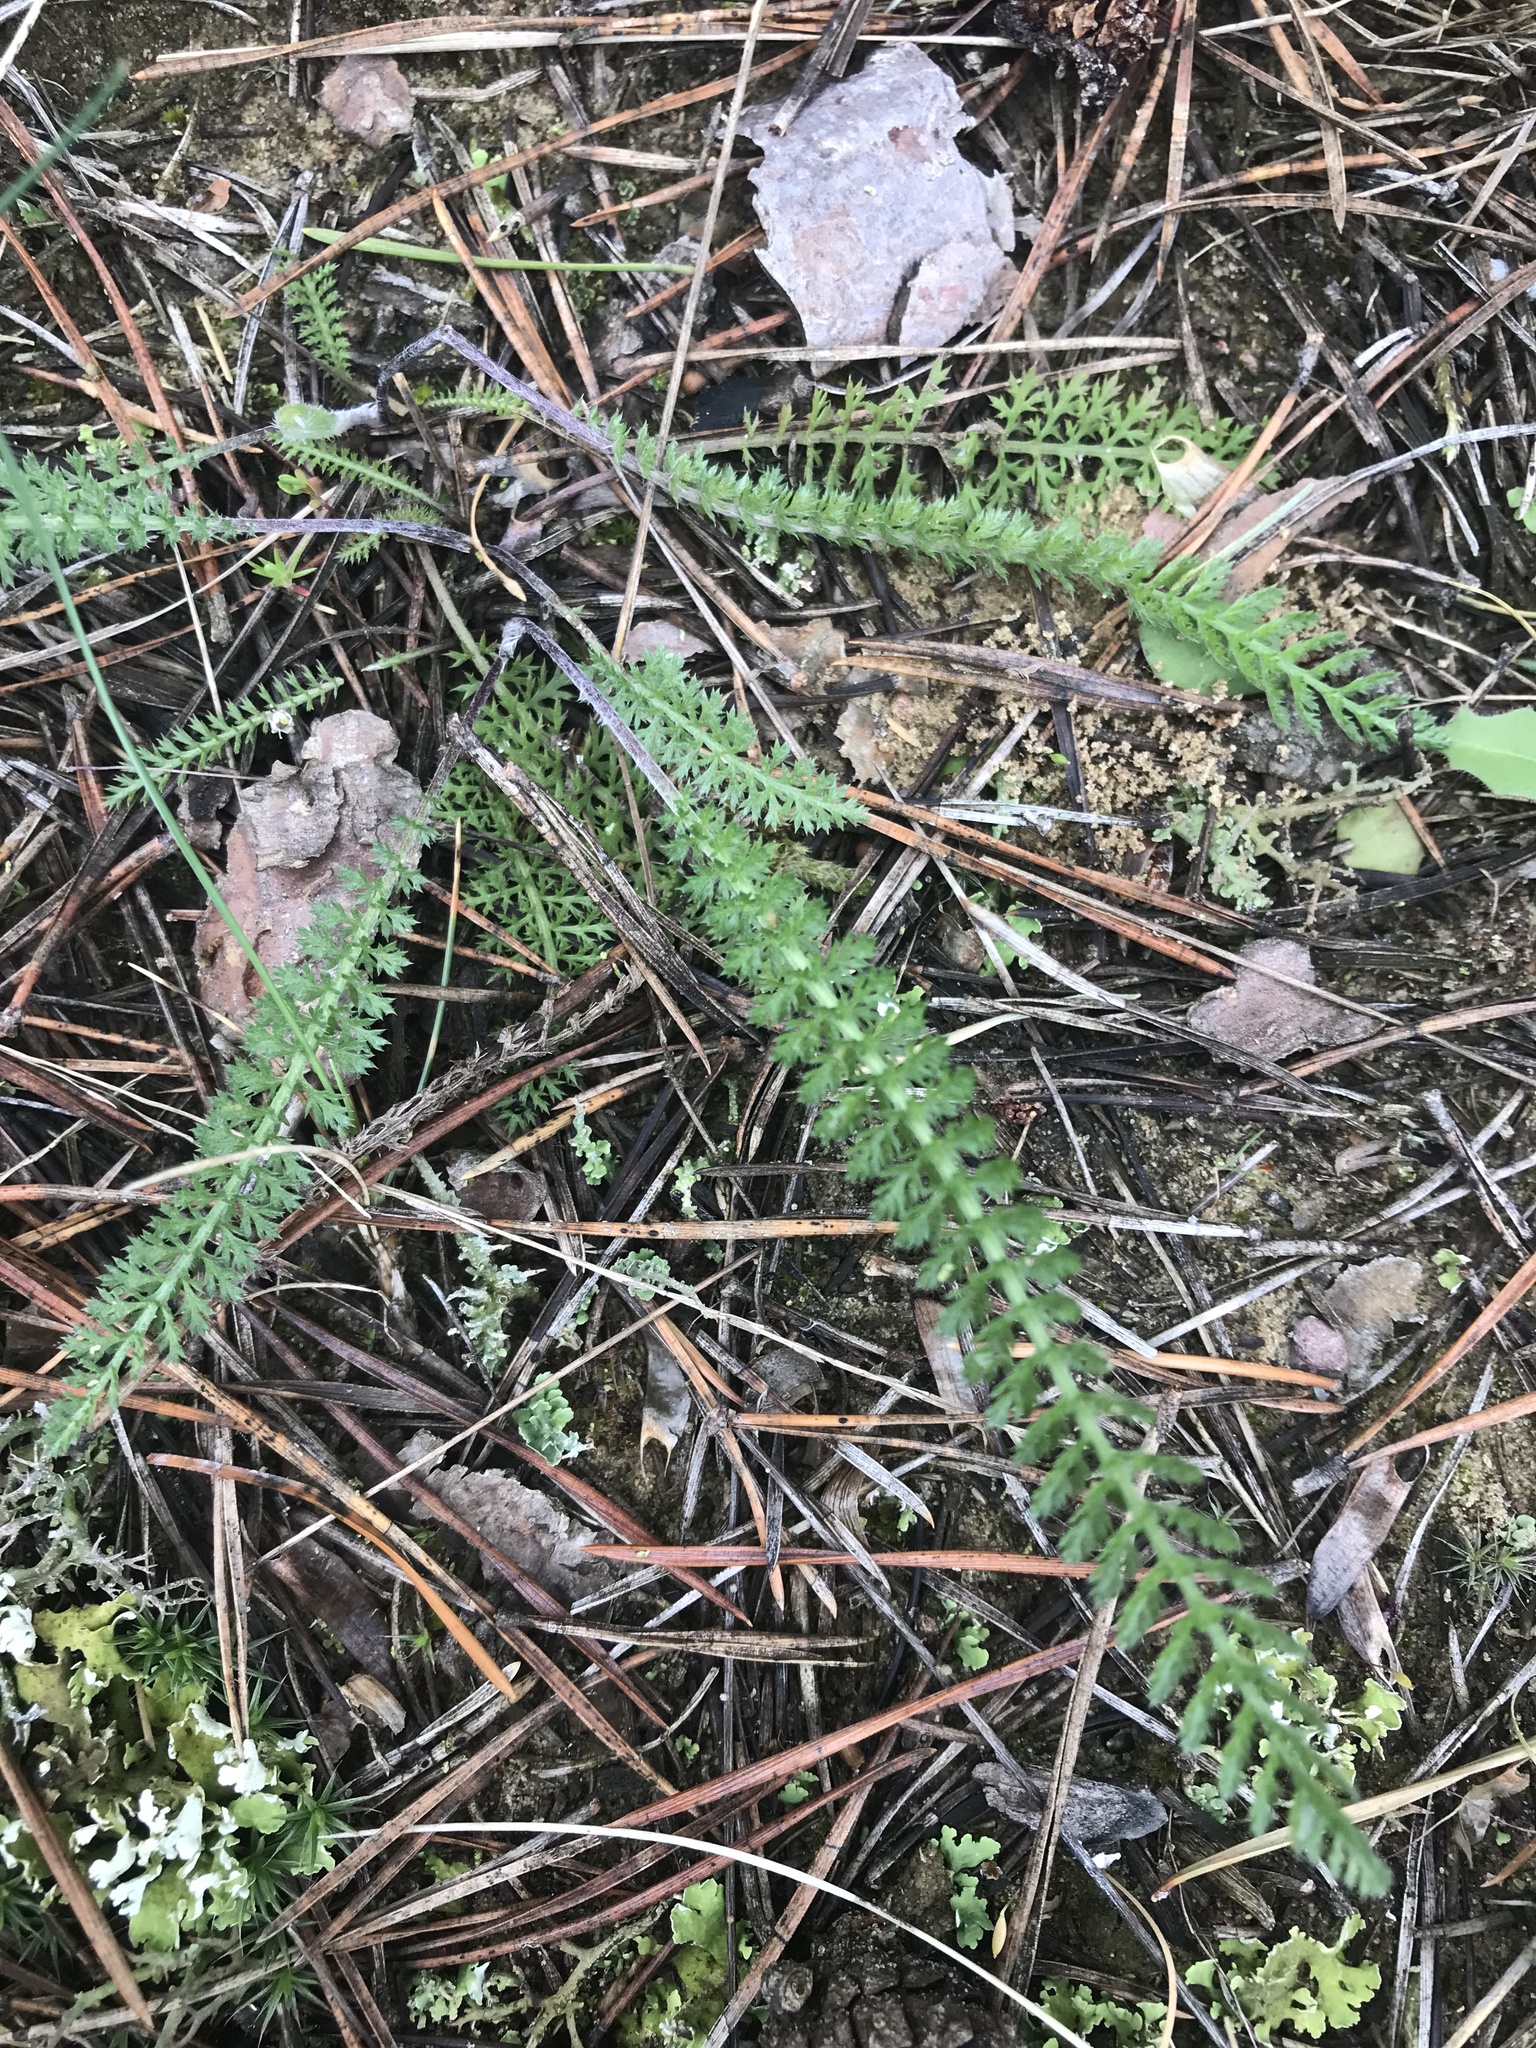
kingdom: Plantae
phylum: Tracheophyta
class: Magnoliopsida
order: Asterales
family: Asteraceae
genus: Achillea
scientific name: Achillea millefolium
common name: Yarrow
